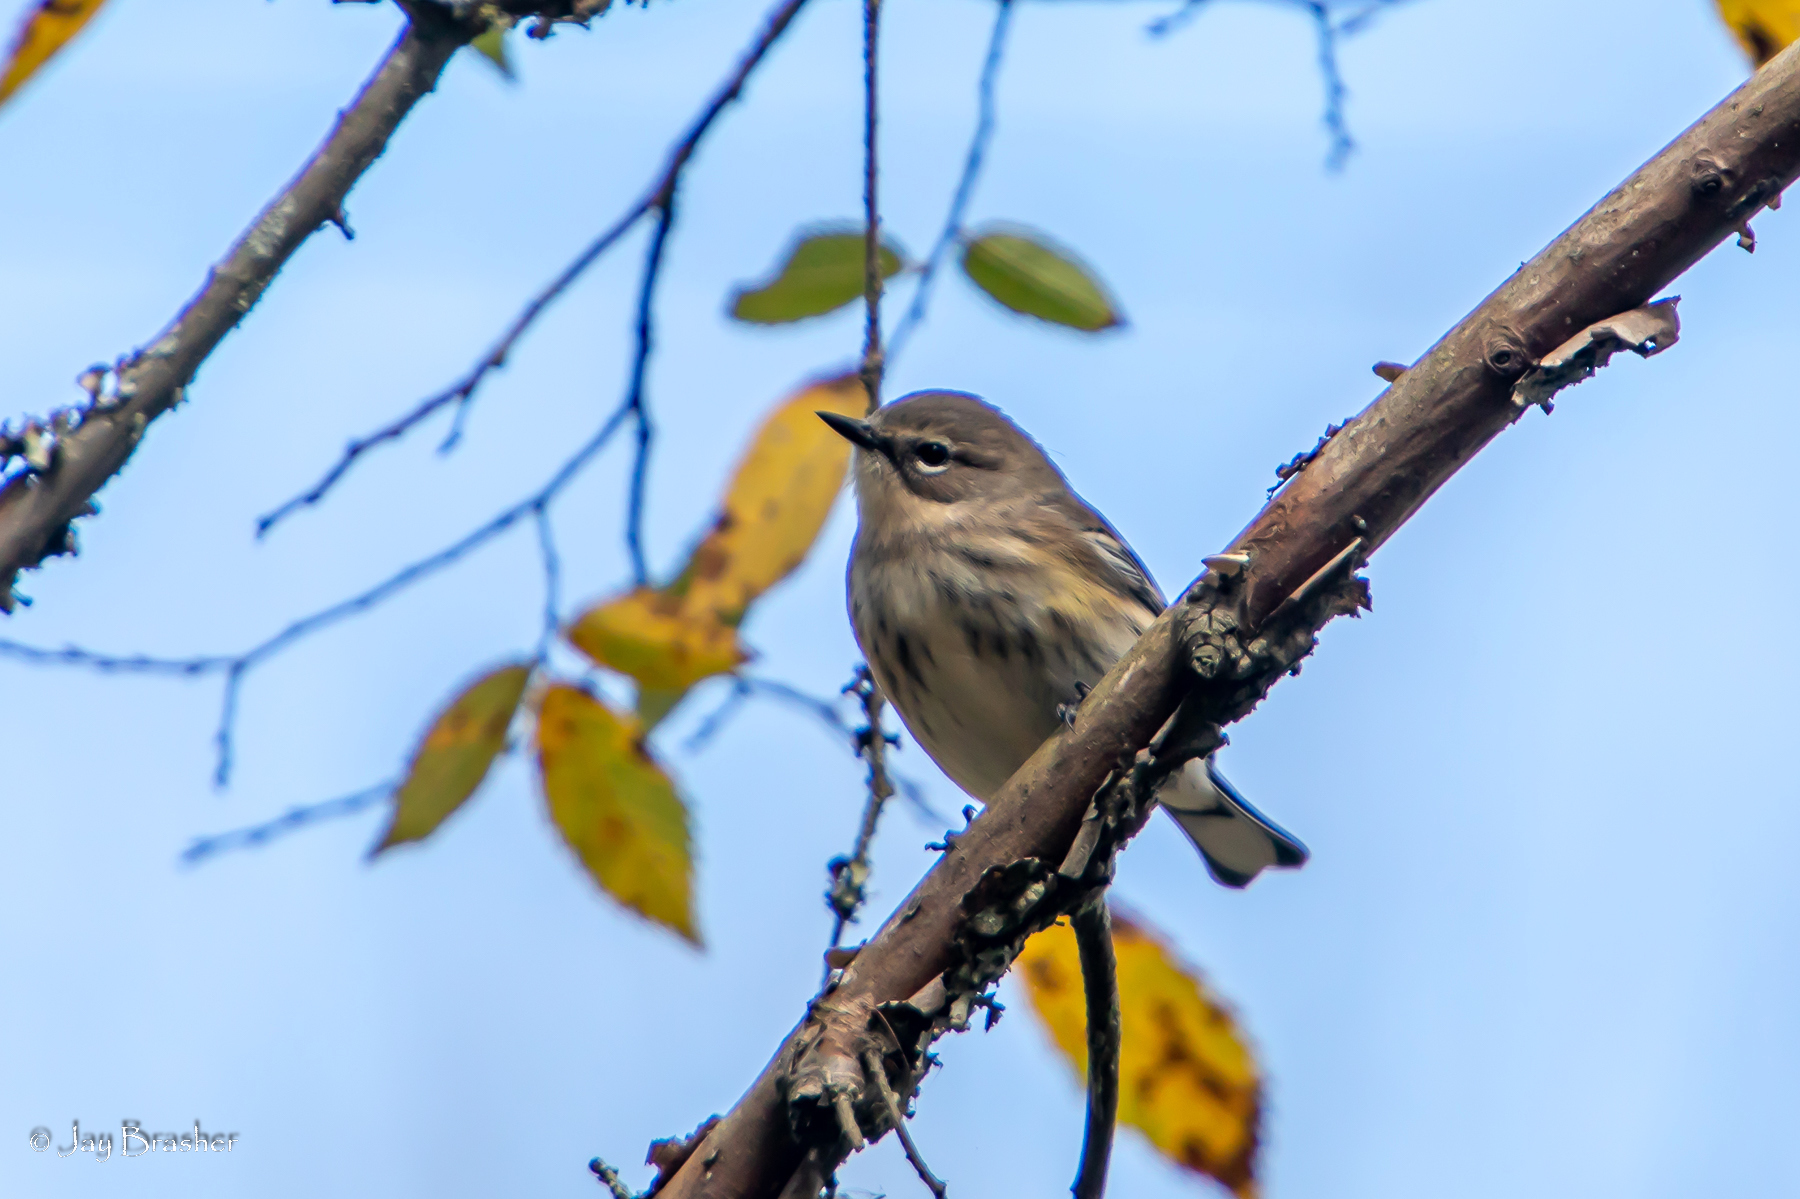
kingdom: Animalia
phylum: Chordata
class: Aves
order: Passeriformes
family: Parulidae
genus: Setophaga
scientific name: Setophaga coronata
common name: Myrtle warbler
